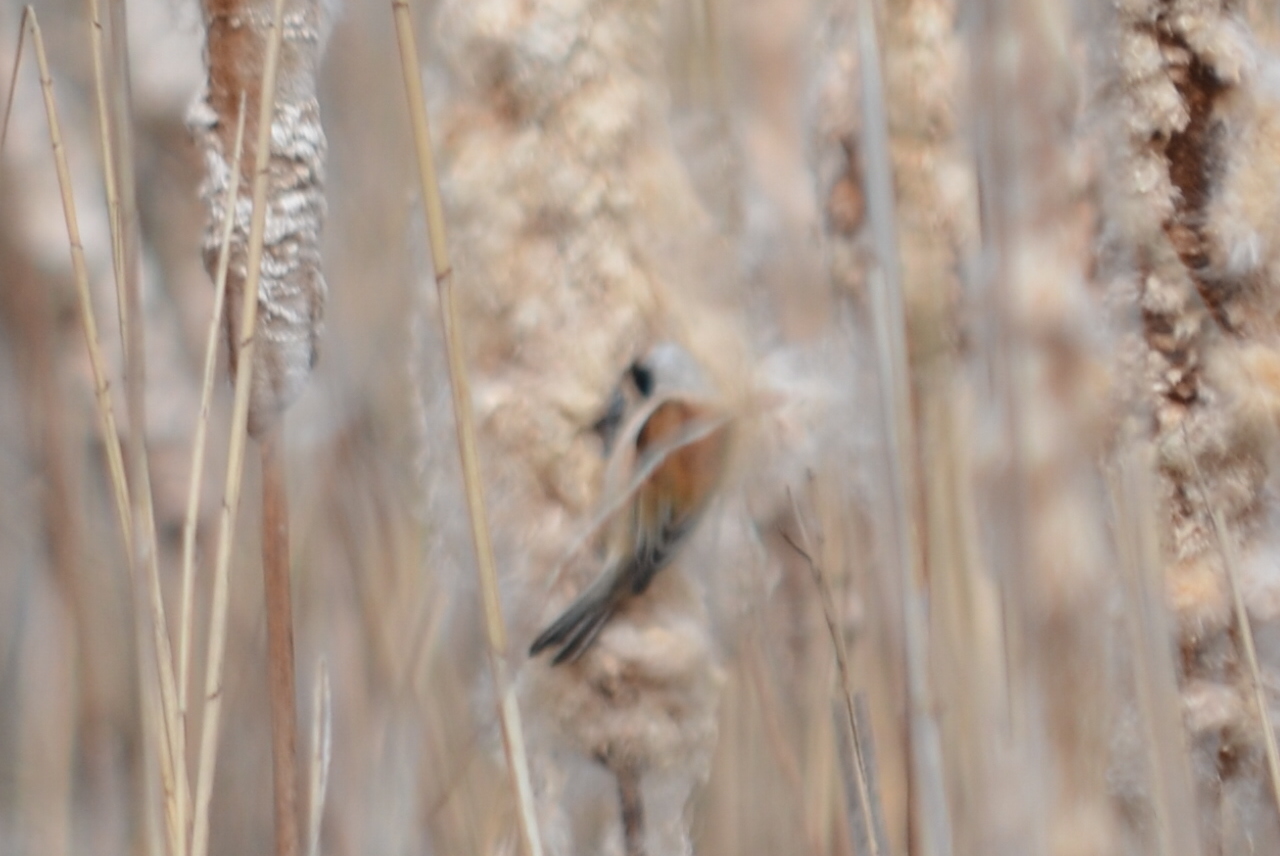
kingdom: Animalia
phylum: Chordata
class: Aves
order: Passeriformes
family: Remizidae
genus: Remiz
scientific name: Remiz pendulinus
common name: Eurasian penduline tit
